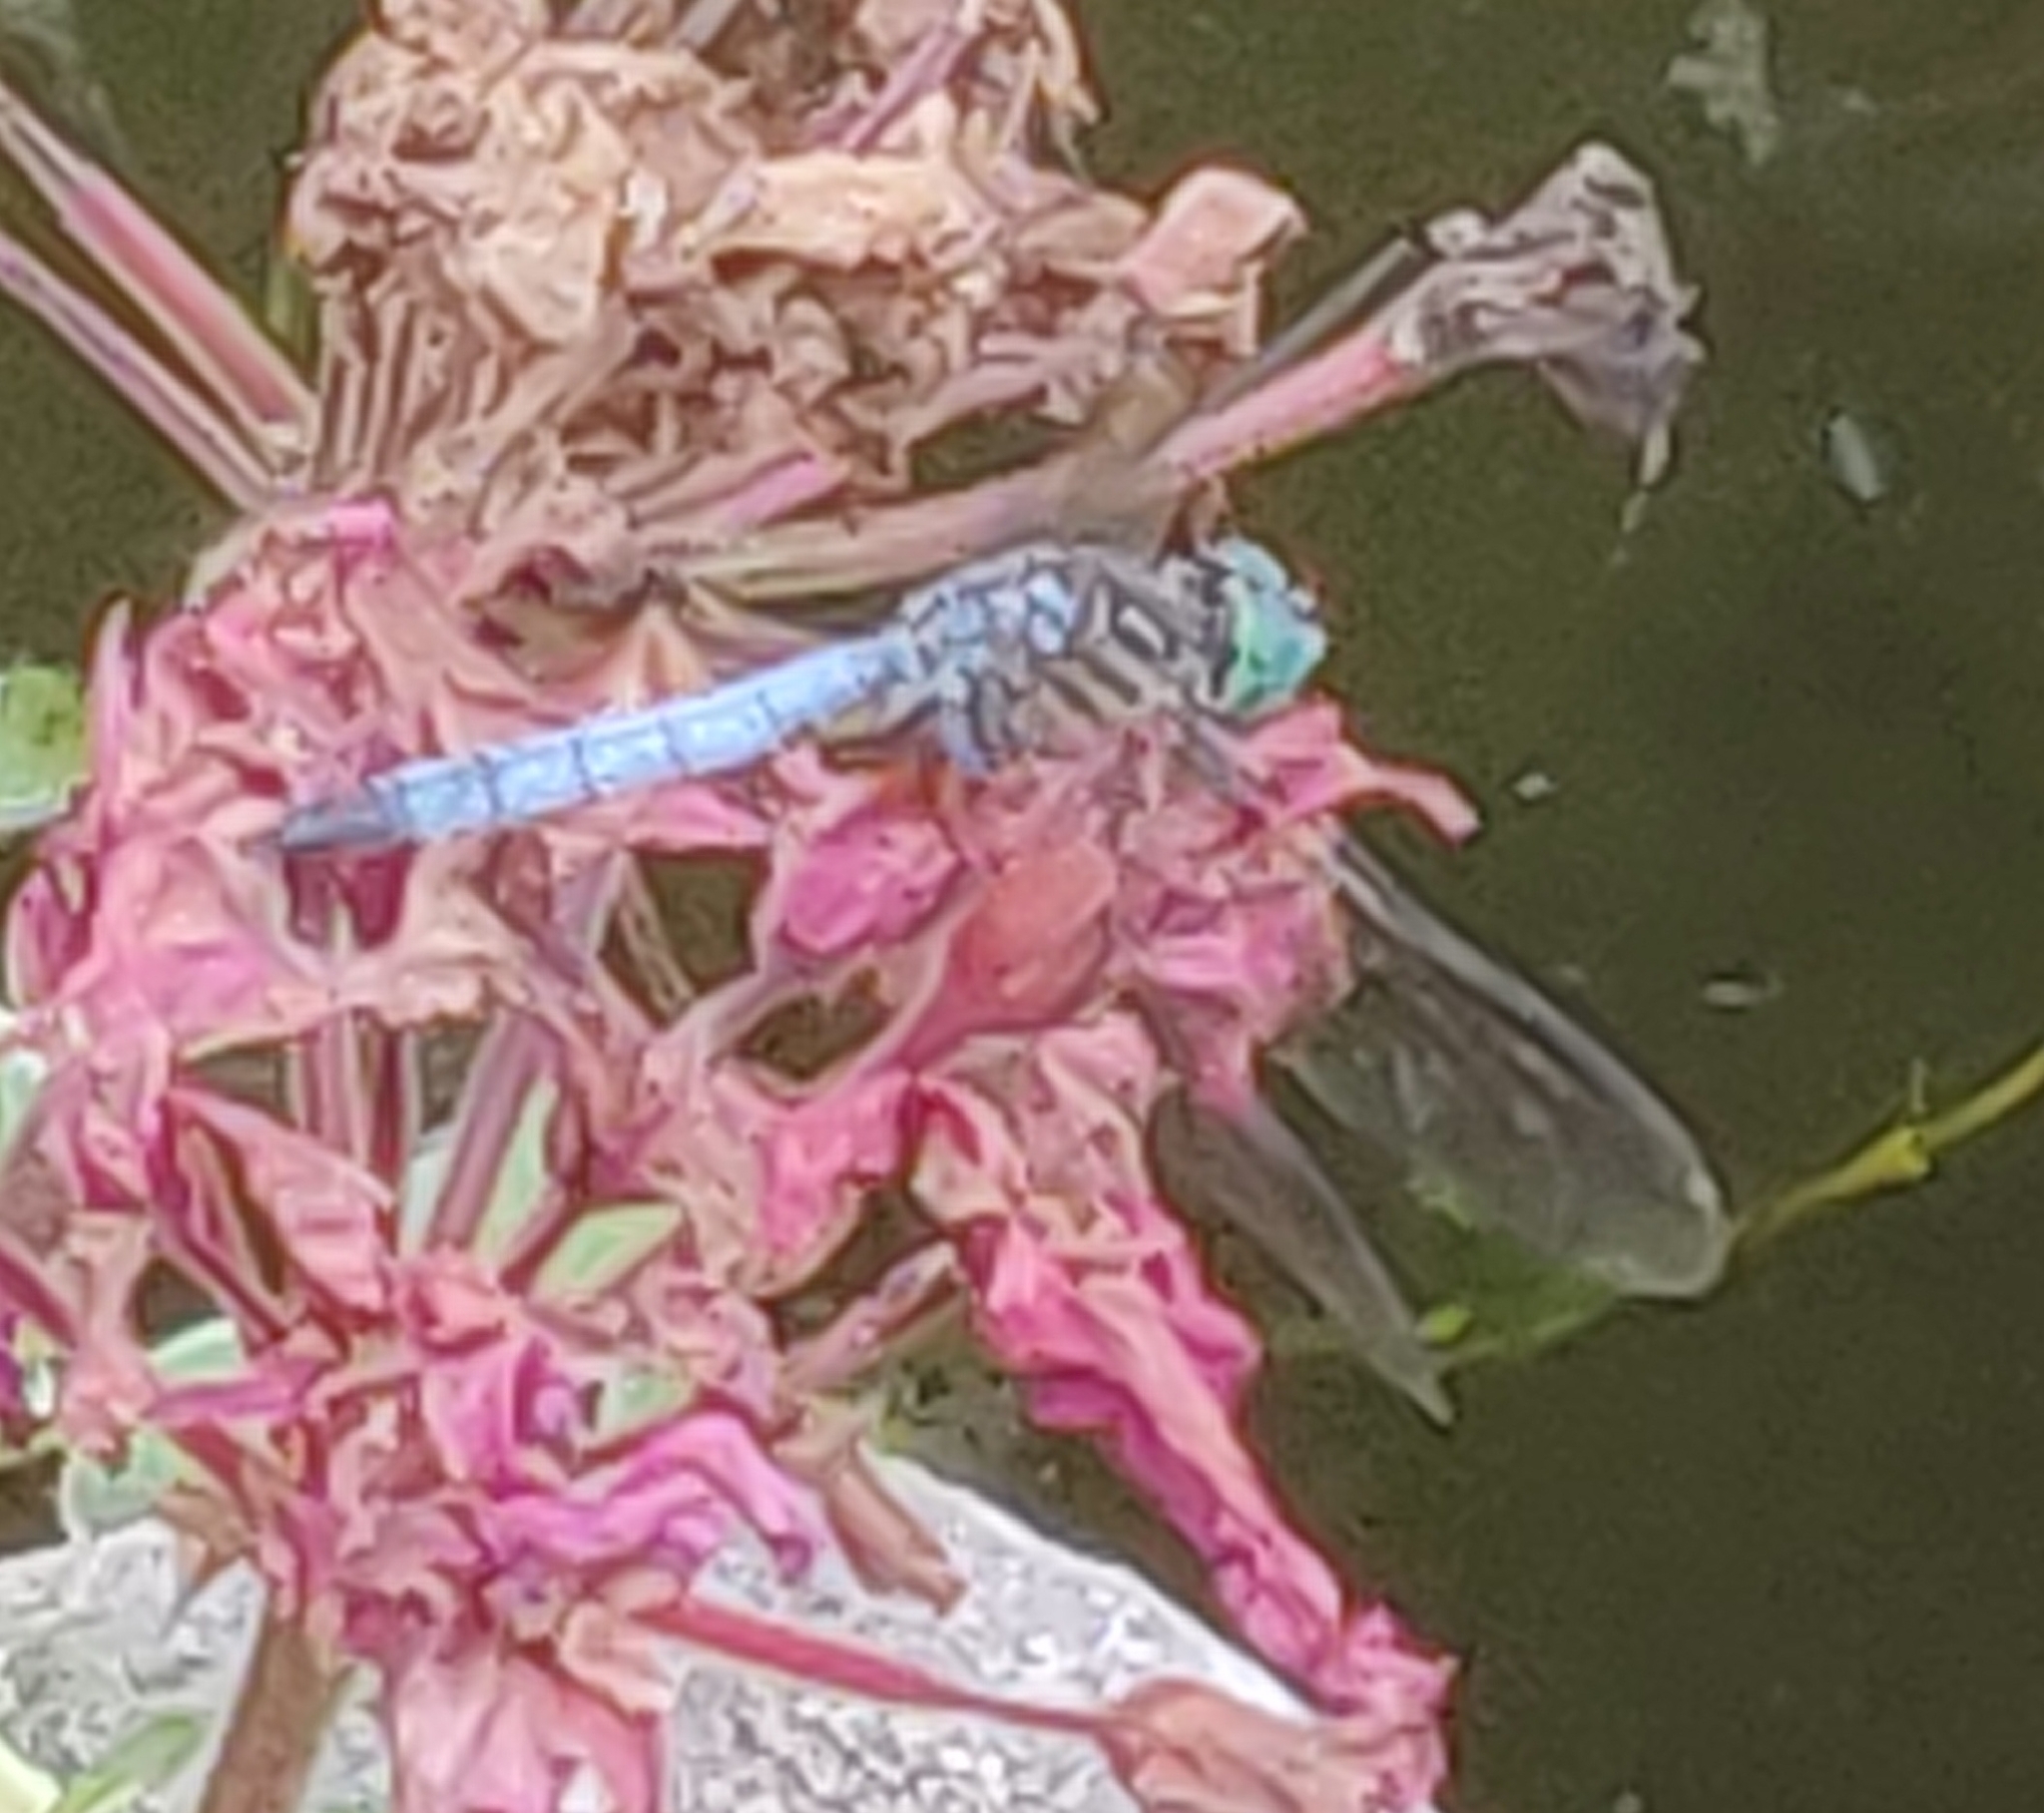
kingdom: Animalia
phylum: Arthropoda
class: Insecta
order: Odonata
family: Libellulidae
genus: Pachydiplax
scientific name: Pachydiplax longipennis
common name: Blue dasher
